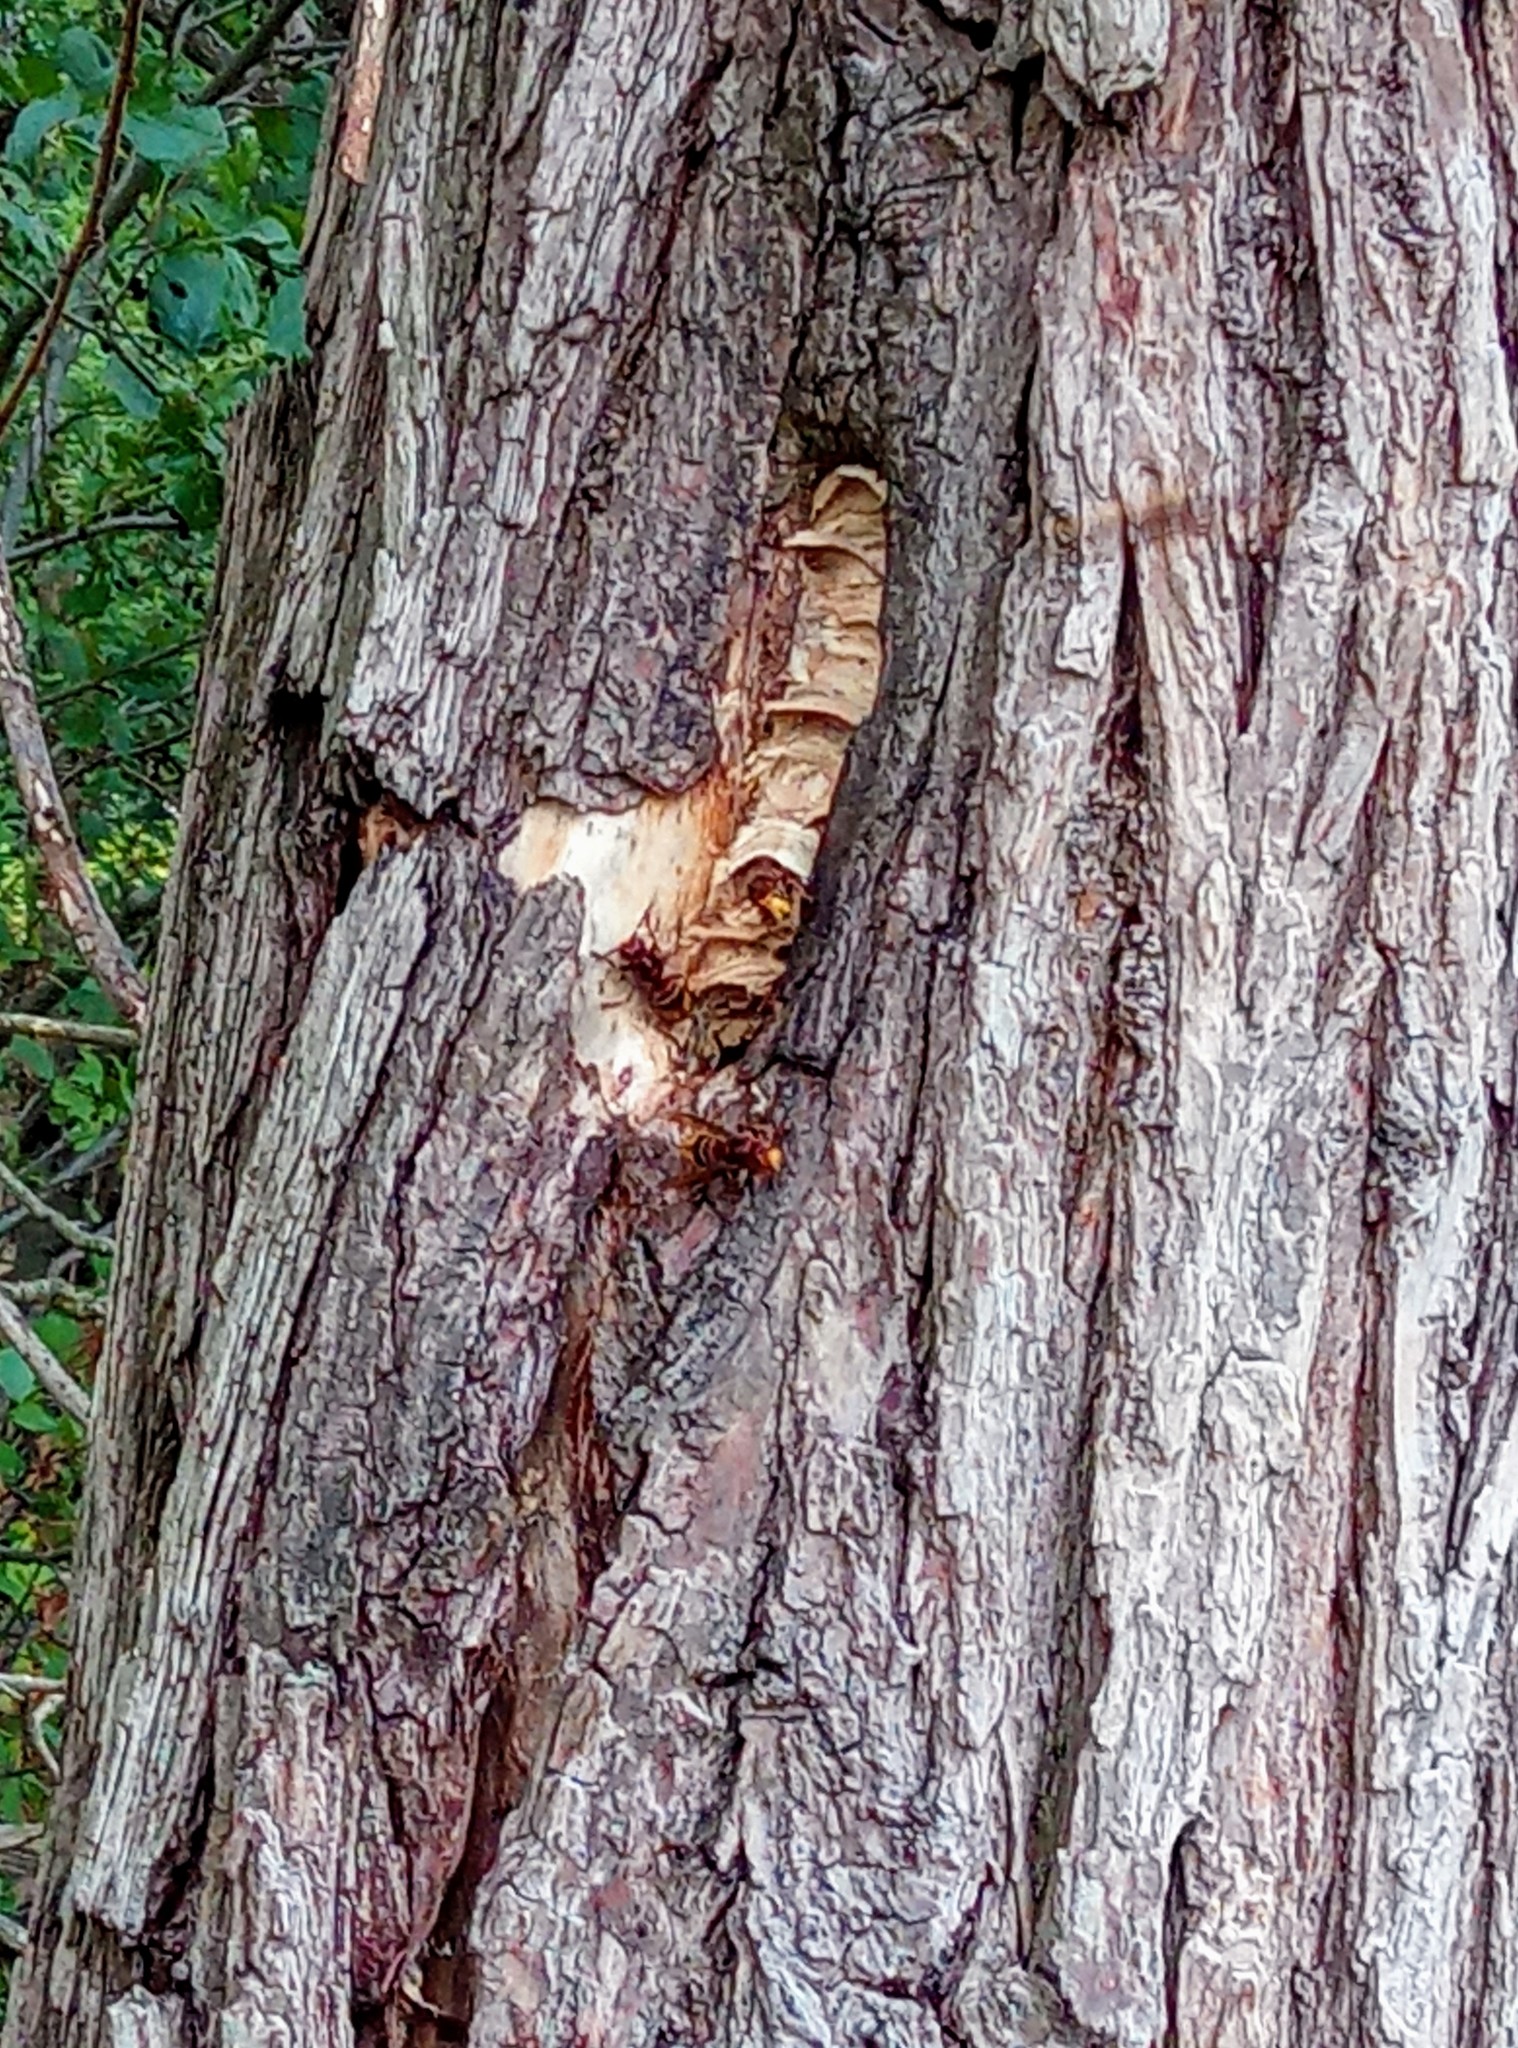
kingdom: Animalia
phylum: Arthropoda
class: Insecta
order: Hymenoptera
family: Vespidae
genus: Vespa
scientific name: Vespa crabro
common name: Hornet
